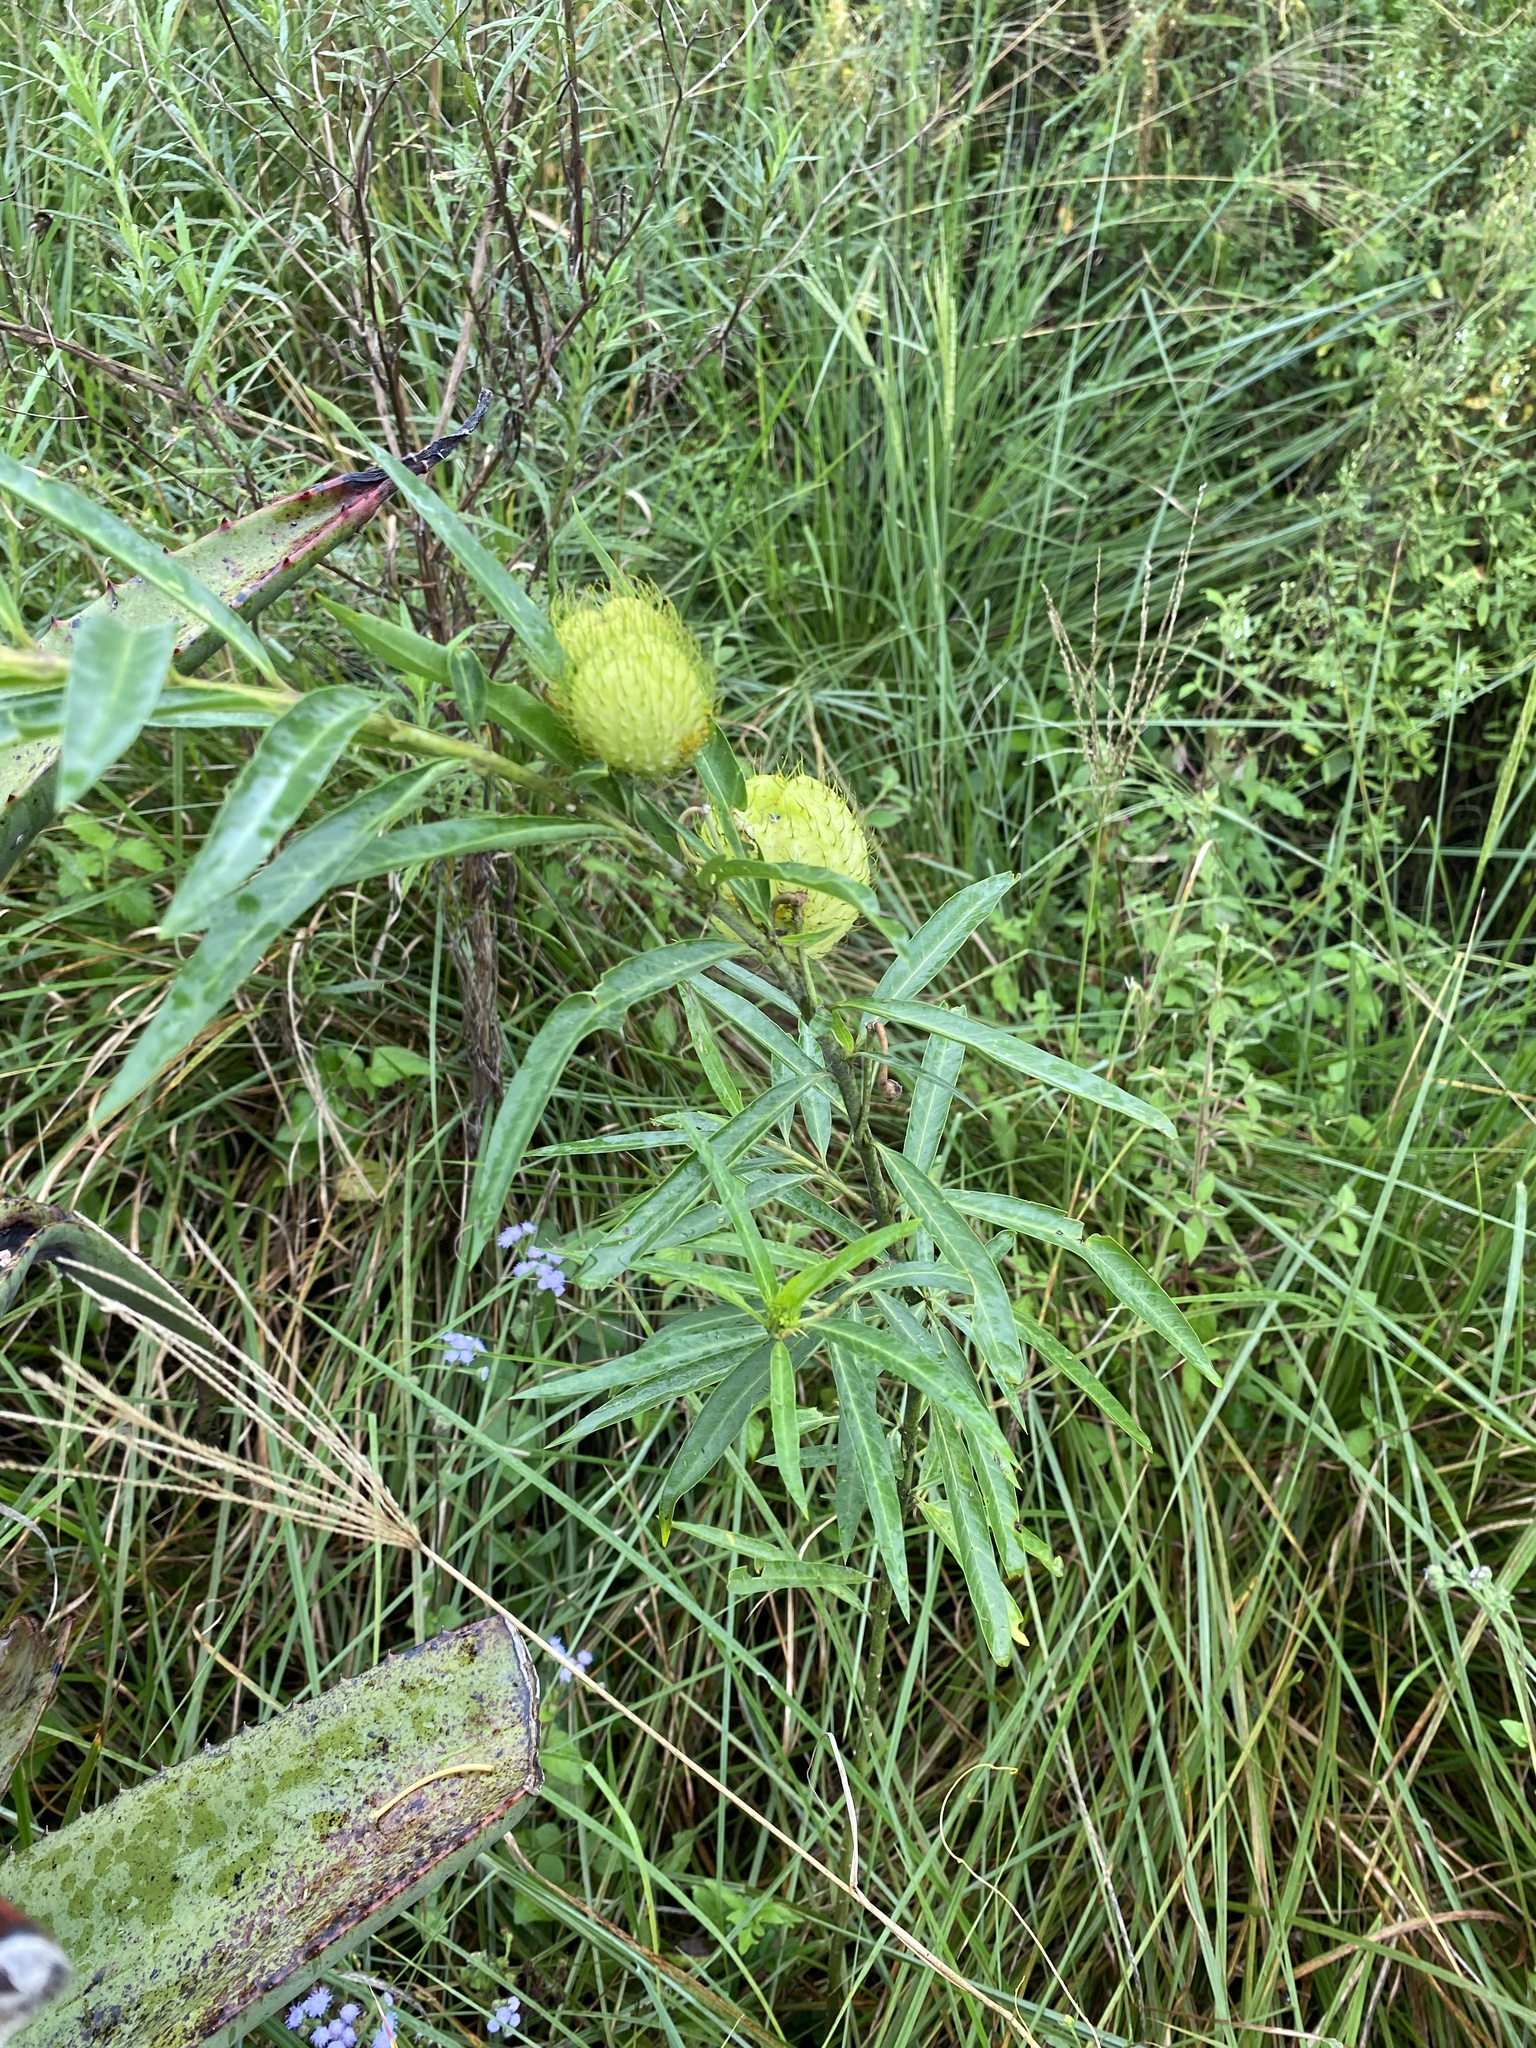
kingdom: Plantae
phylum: Tracheophyta
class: Magnoliopsida
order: Gentianales
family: Apocynaceae
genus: Gomphocarpus
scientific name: Gomphocarpus physocarpus
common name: Balloon cotton bush
